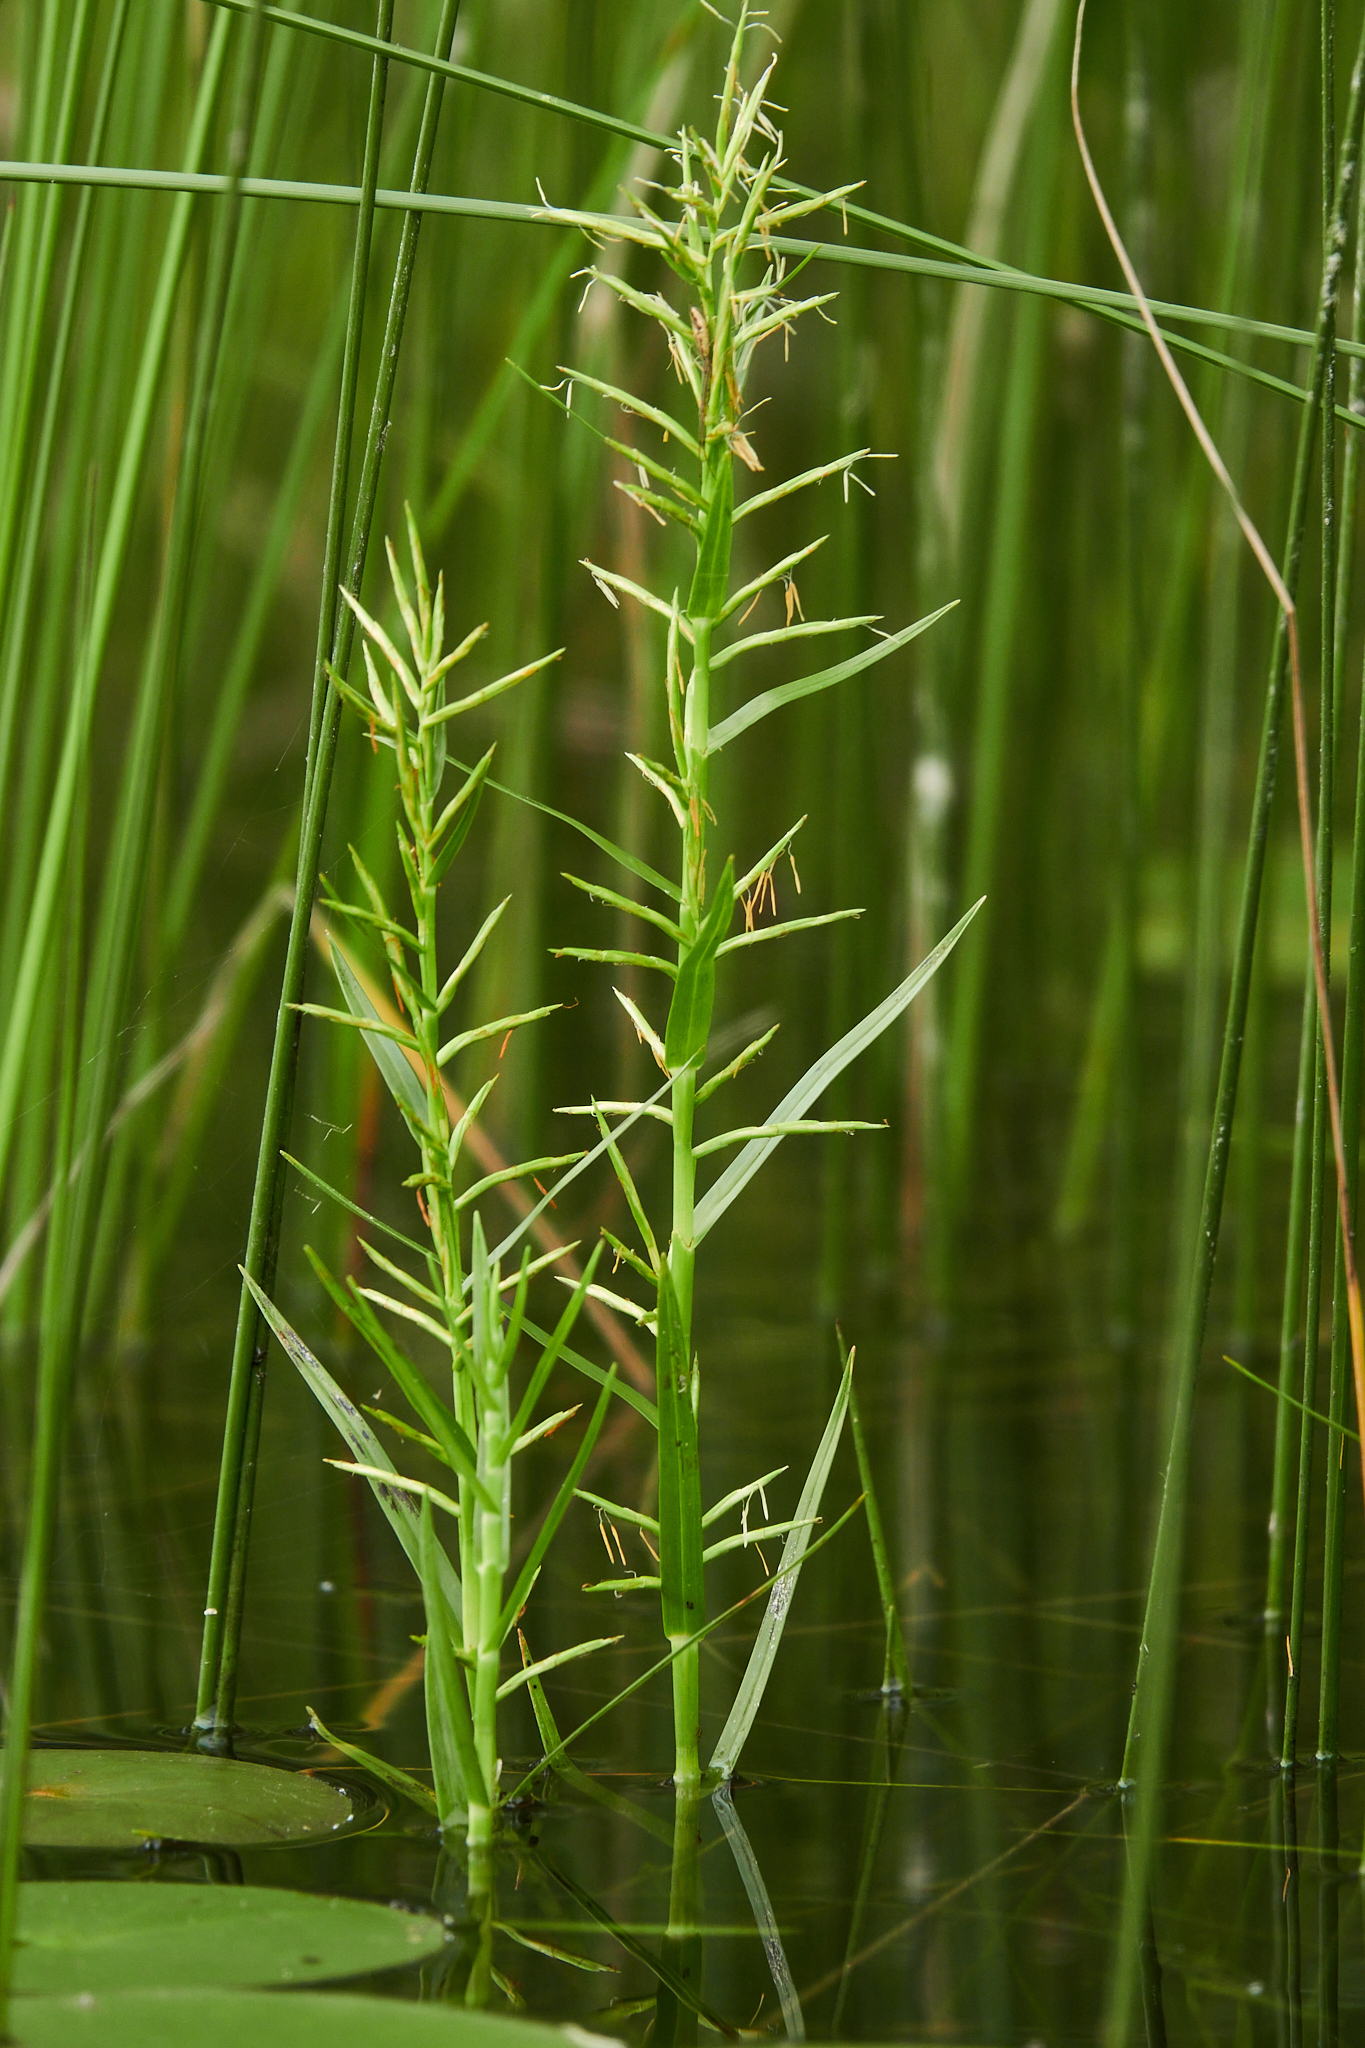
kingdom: Plantae
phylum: Tracheophyta
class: Liliopsida
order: Poales
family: Cyperaceae
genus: Dulichium
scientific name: Dulichium arundinaceum
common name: Three-way sedge
